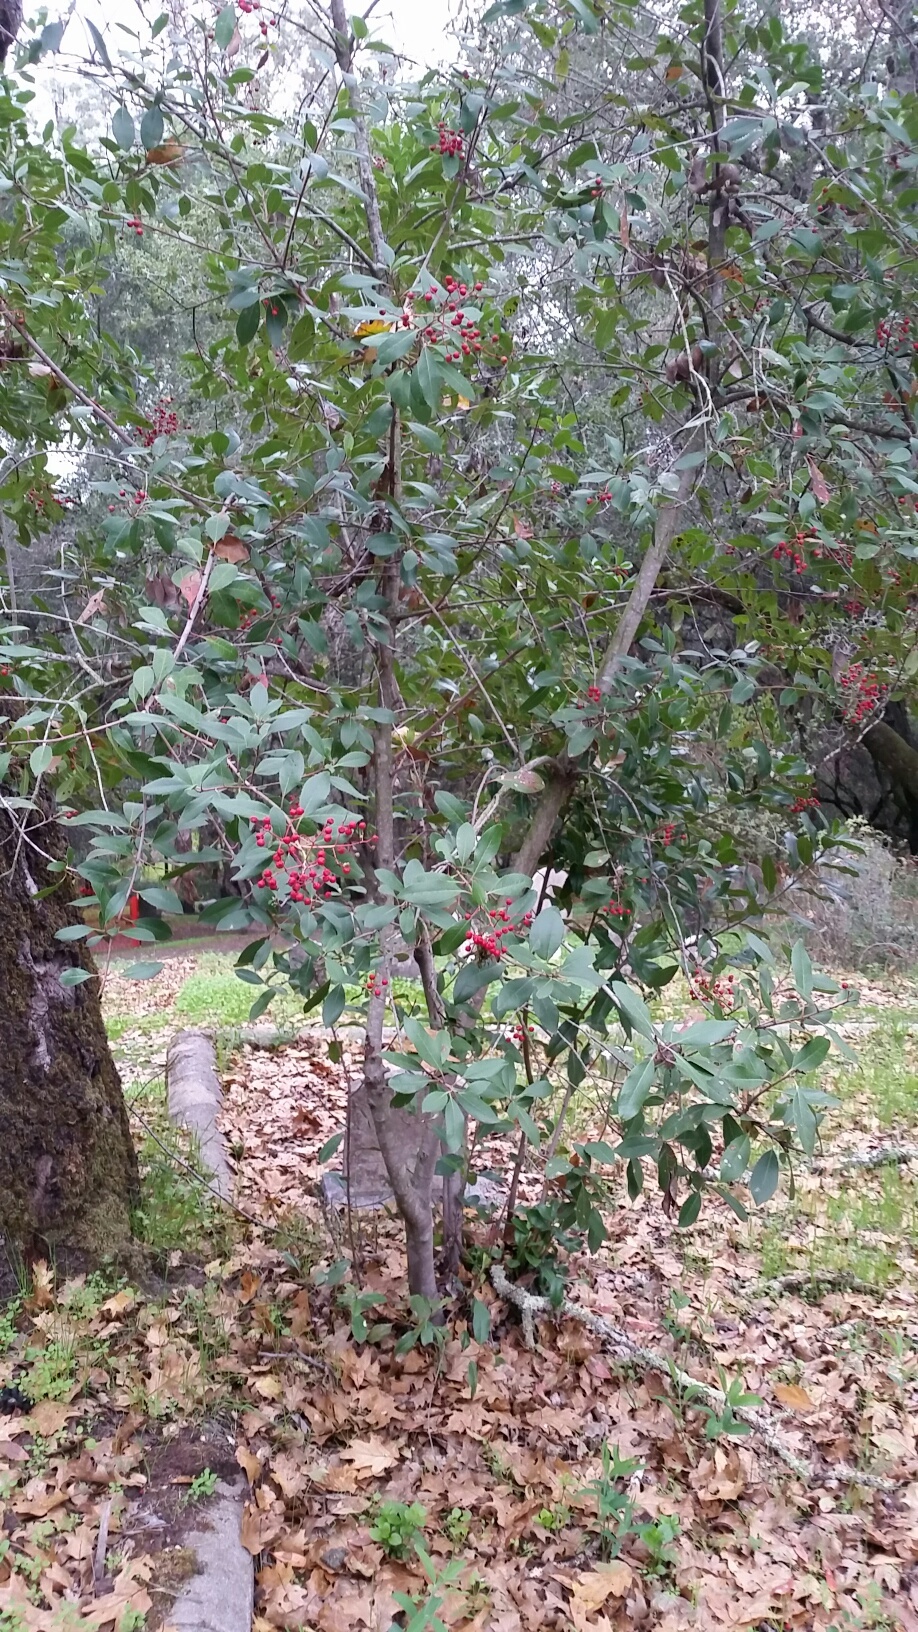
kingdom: Plantae
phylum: Tracheophyta
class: Magnoliopsida
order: Rosales
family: Rosaceae
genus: Heteromeles
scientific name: Heteromeles arbutifolia
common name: California-holly
